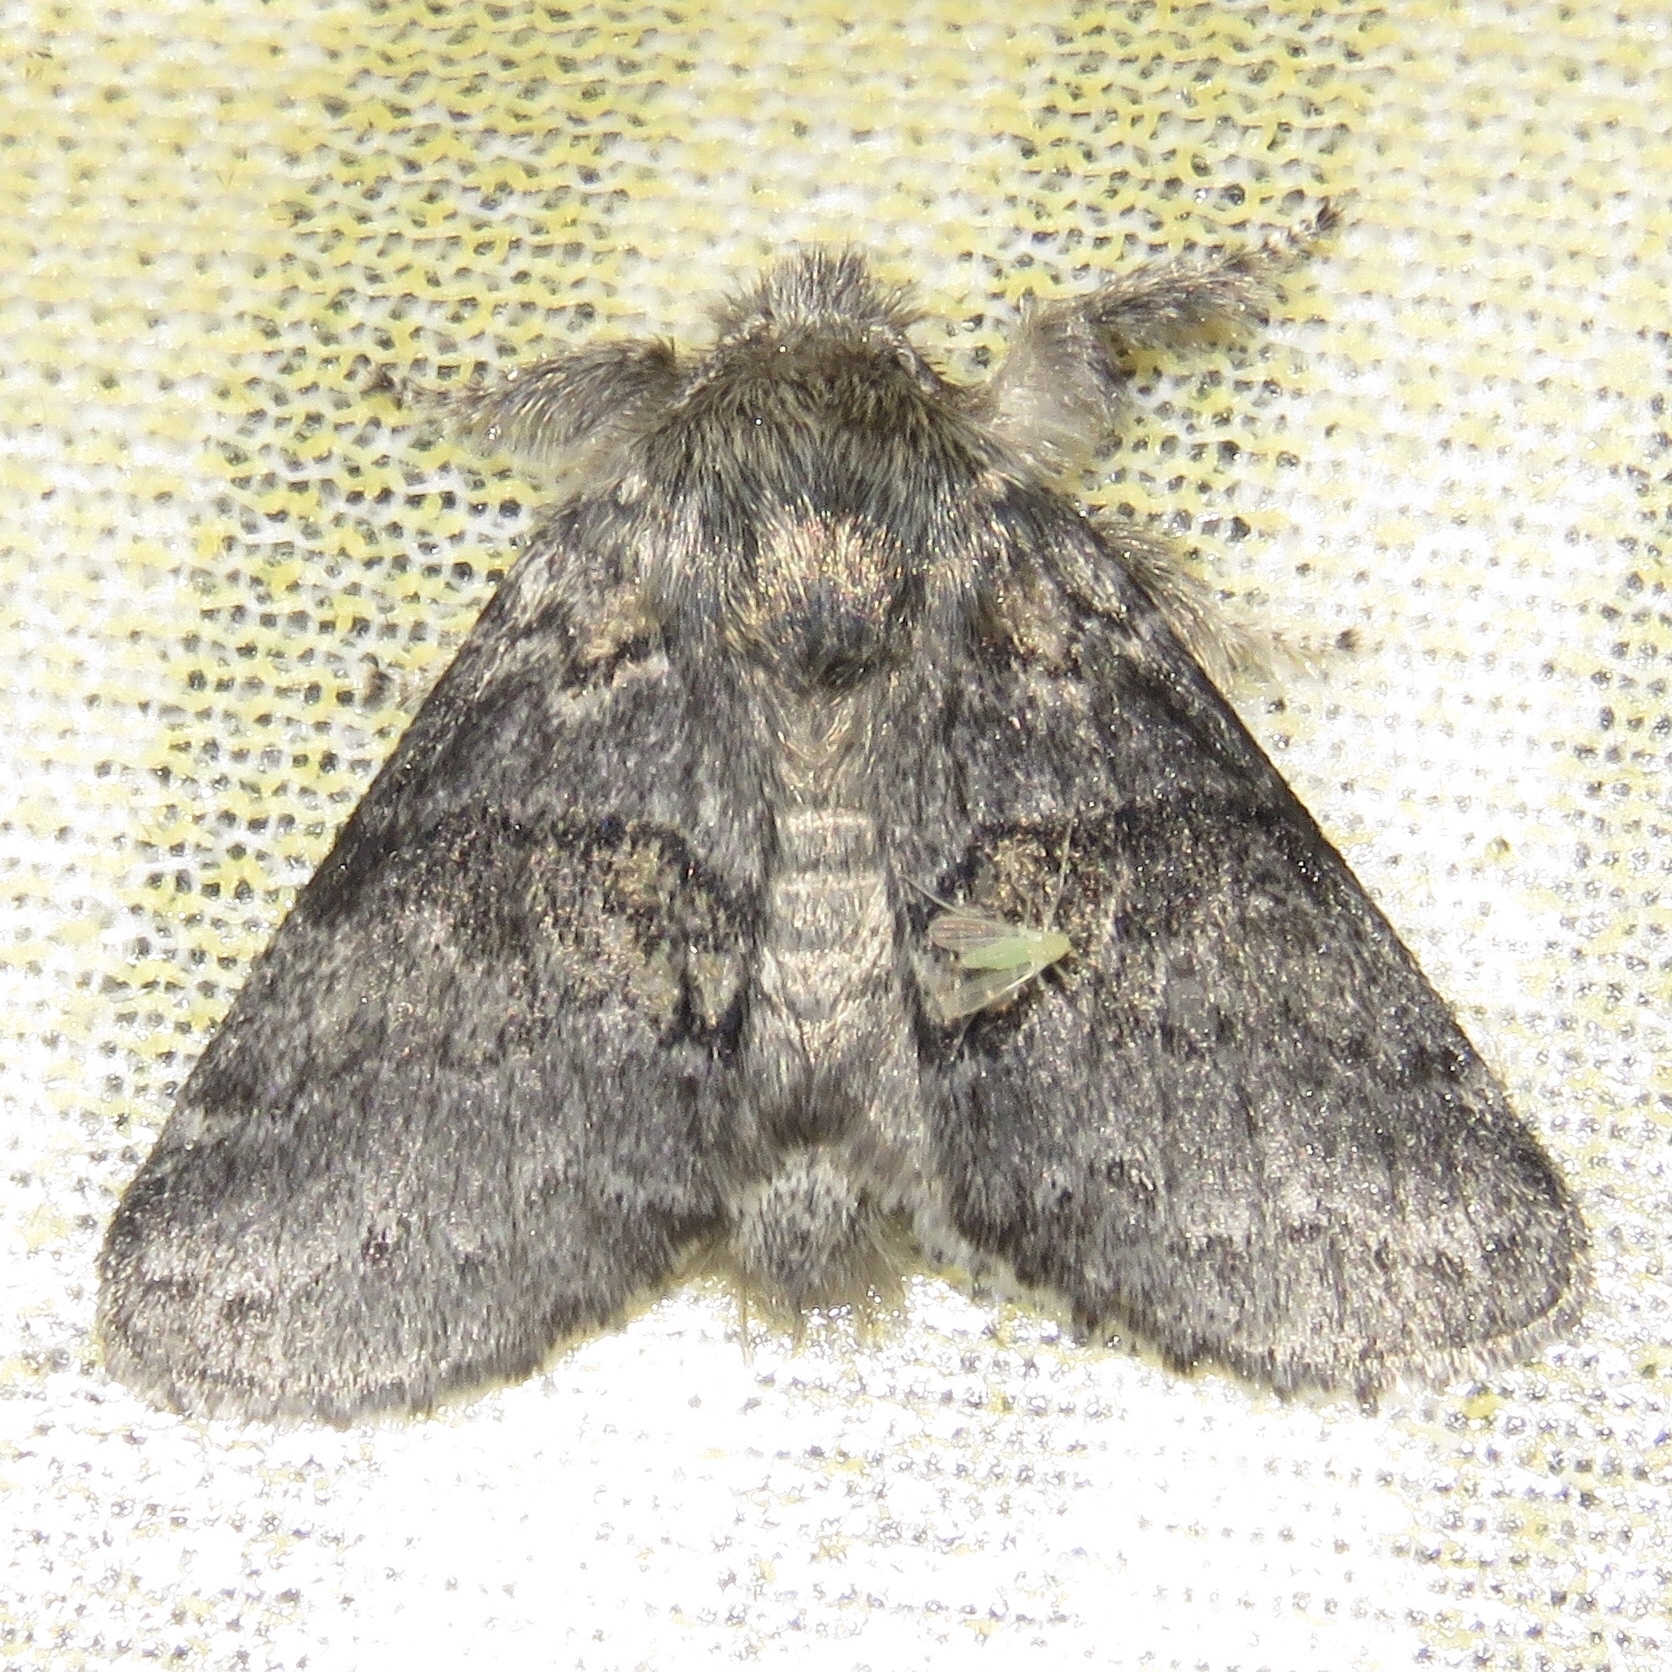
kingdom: Animalia
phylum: Arthropoda
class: Insecta
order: Lepidoptera
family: Notodontidae
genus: Gluphisia
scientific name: Gluphisia septentrionis
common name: Common gluphisia
